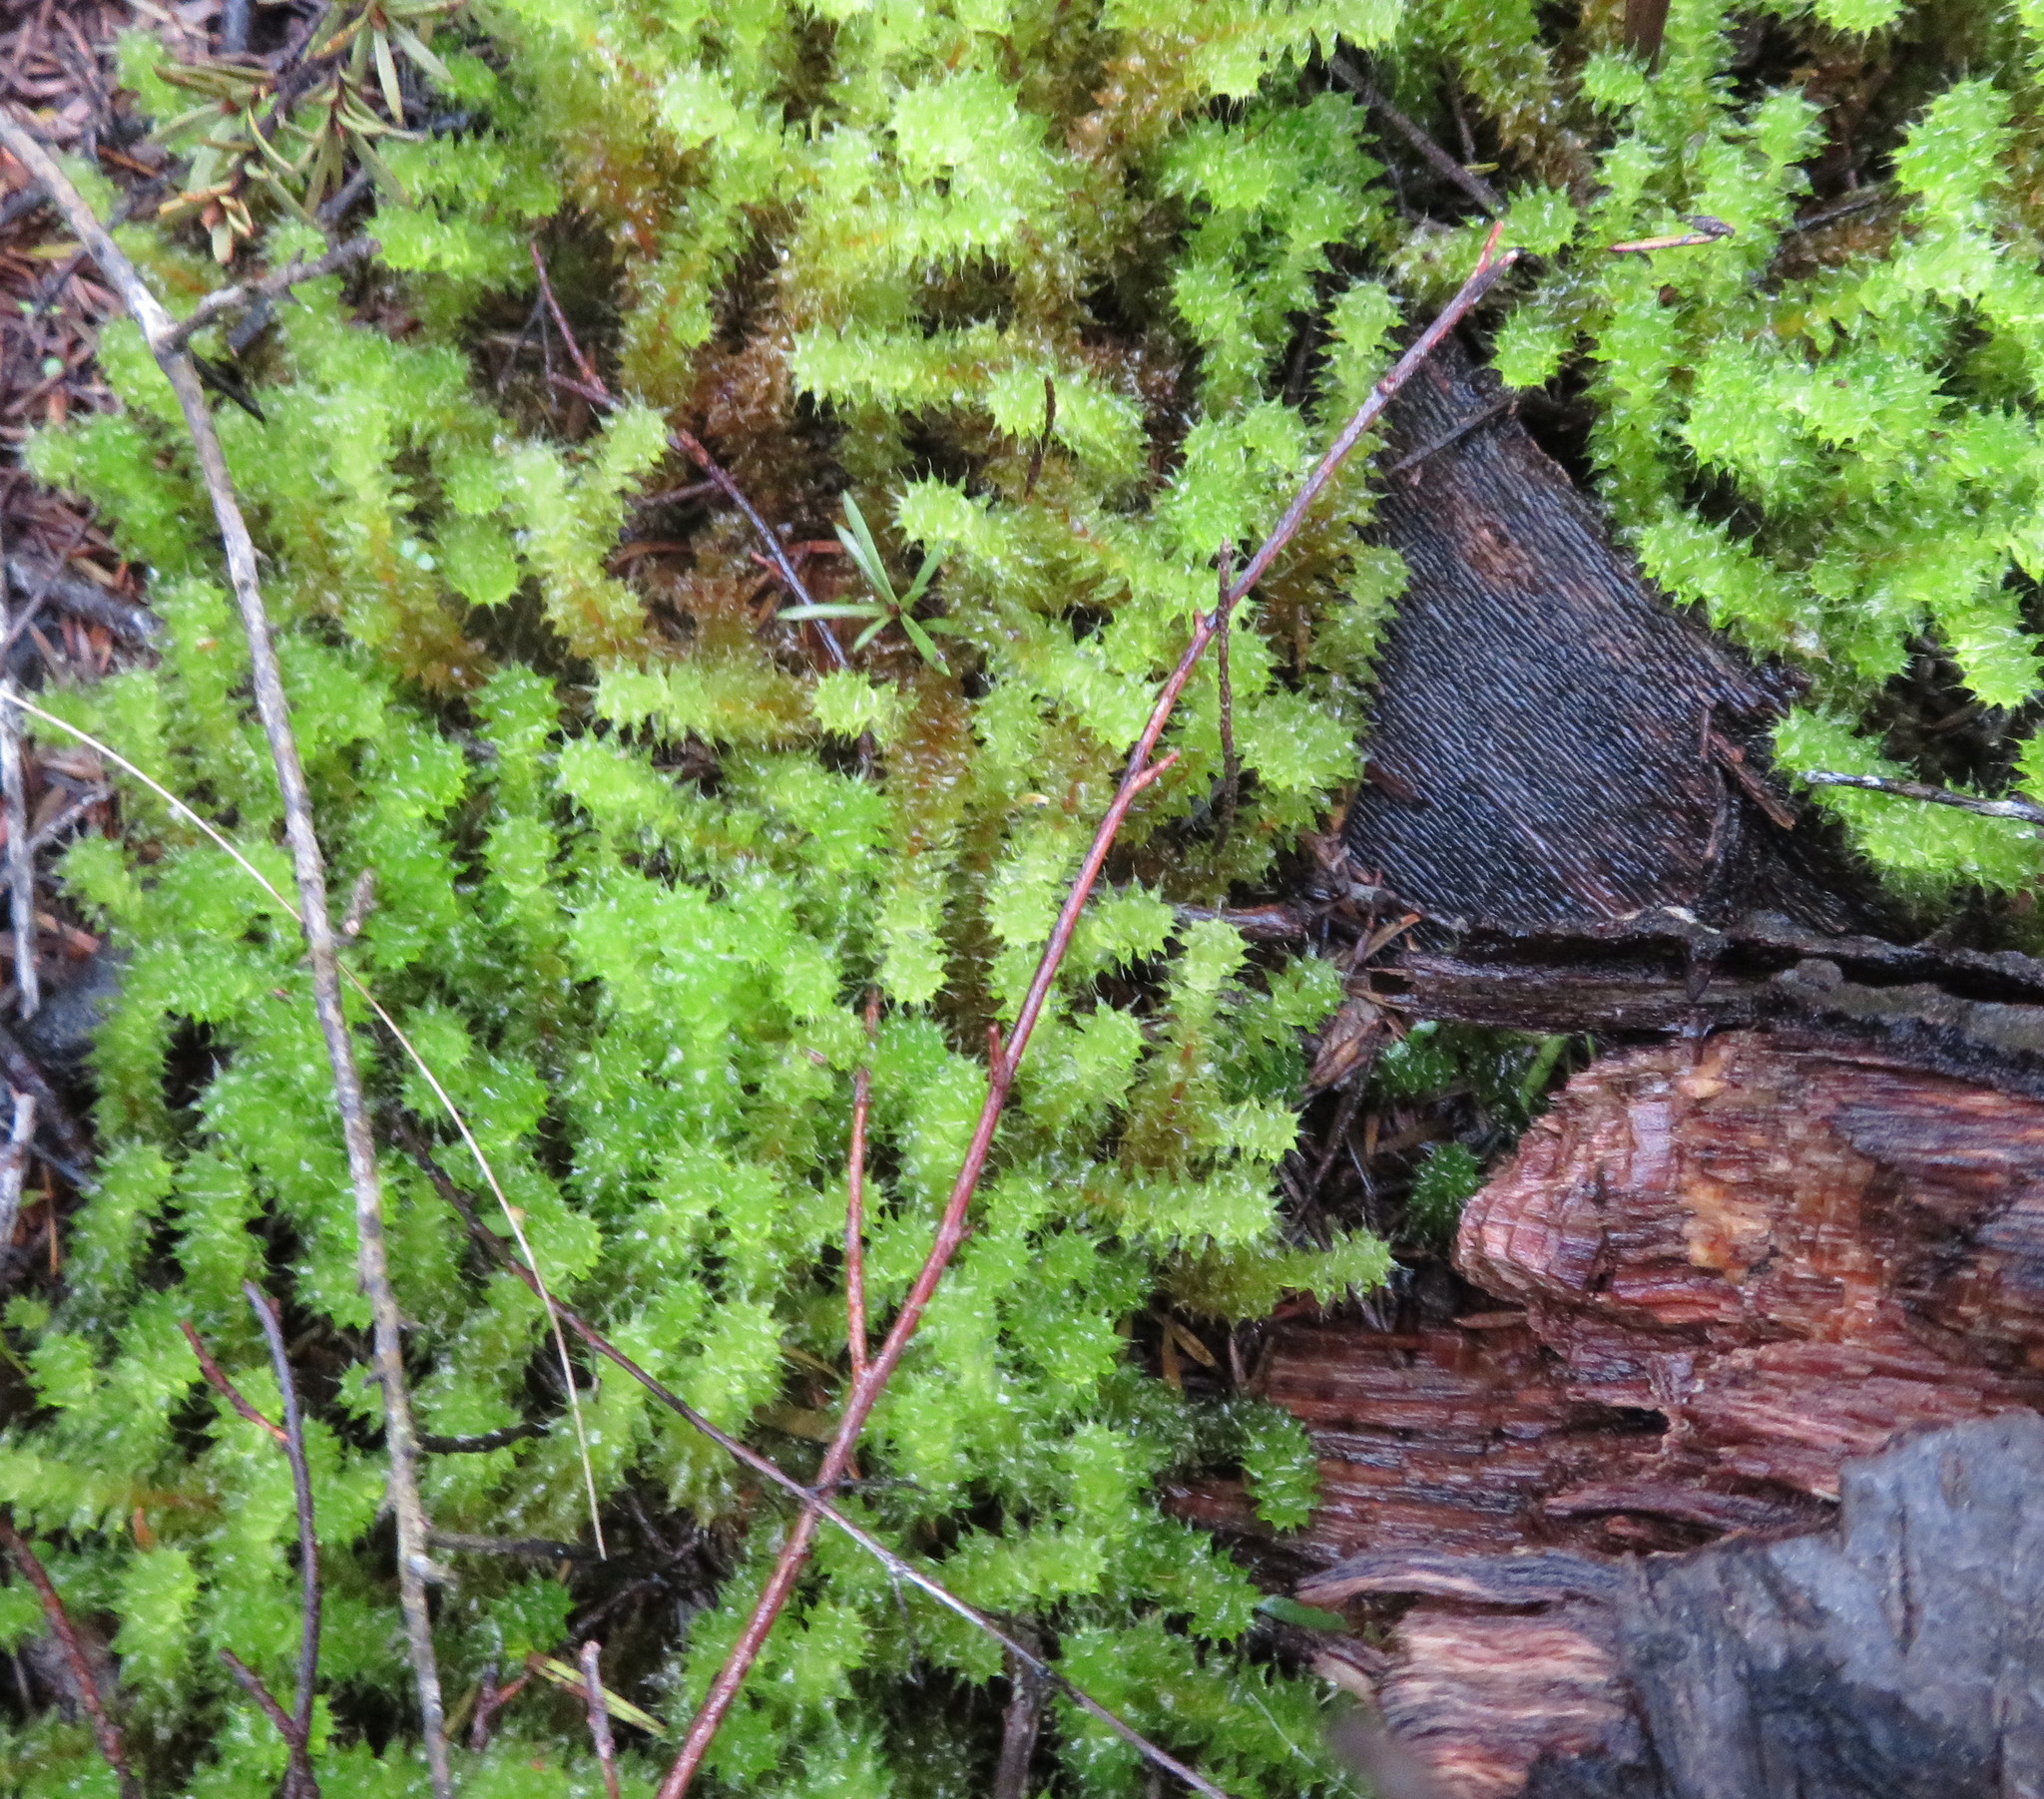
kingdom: Plantae
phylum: Bryophyta
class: Bryopsida
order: Ptychomniales
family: Ptychomniaceae
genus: Ptychomnion
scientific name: Ptychomnion aciculare
